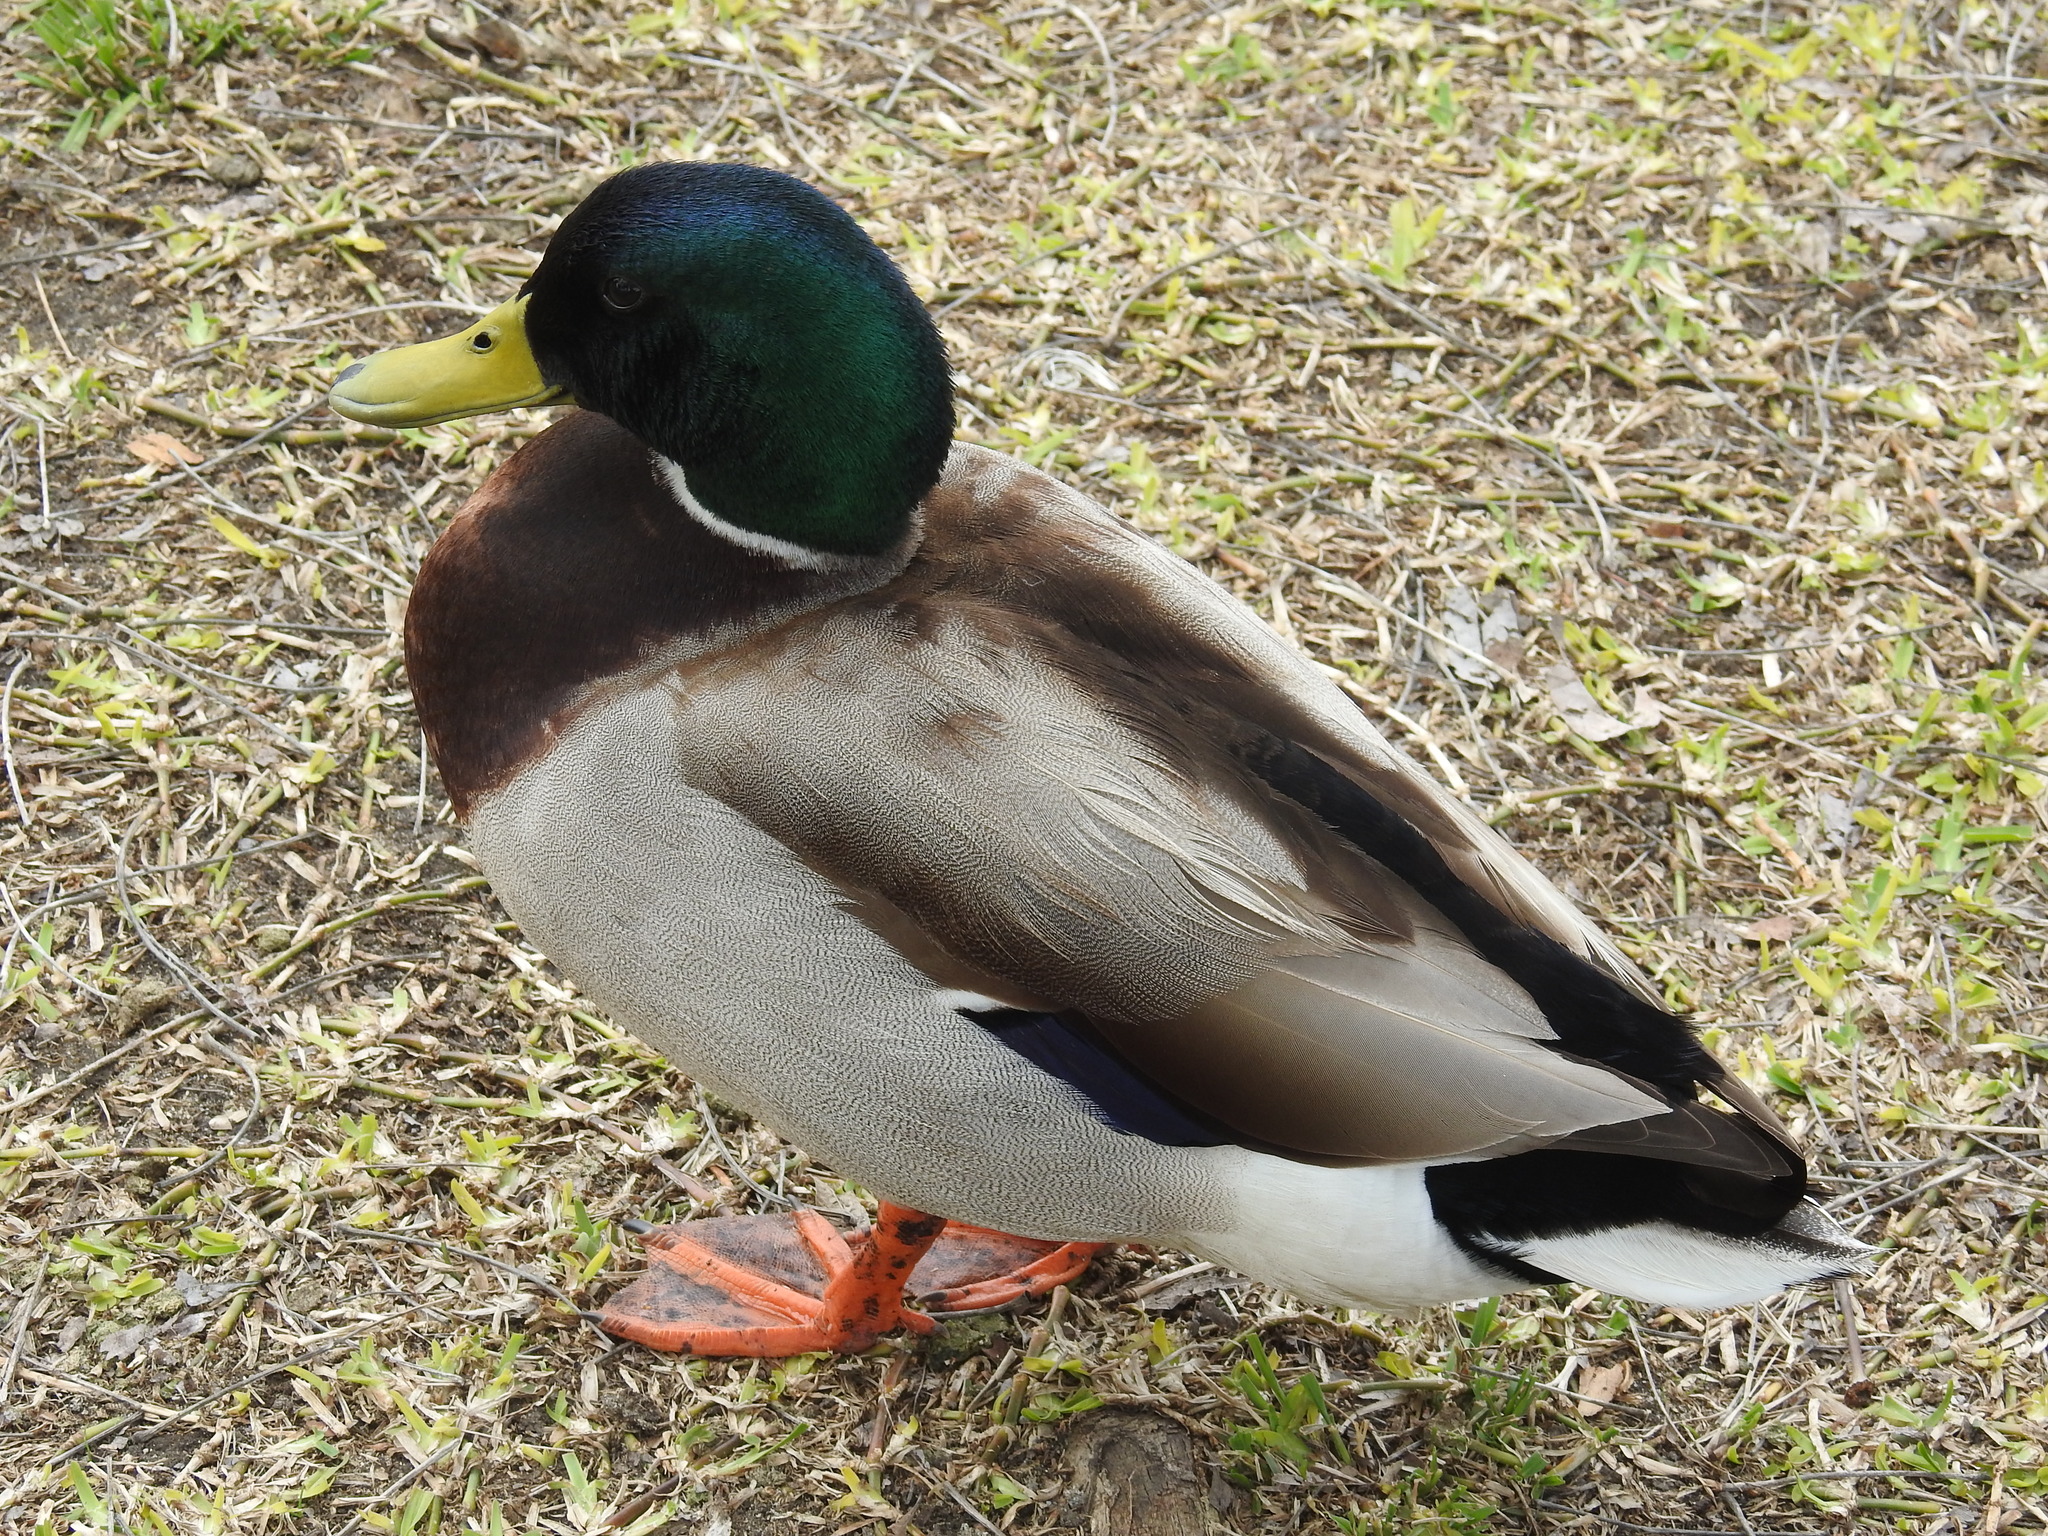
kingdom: Animalia
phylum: Chordata
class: Aves
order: Anseriformes
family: Anatidae
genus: Anas
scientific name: Anas platyrhynchos
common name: Mallard
